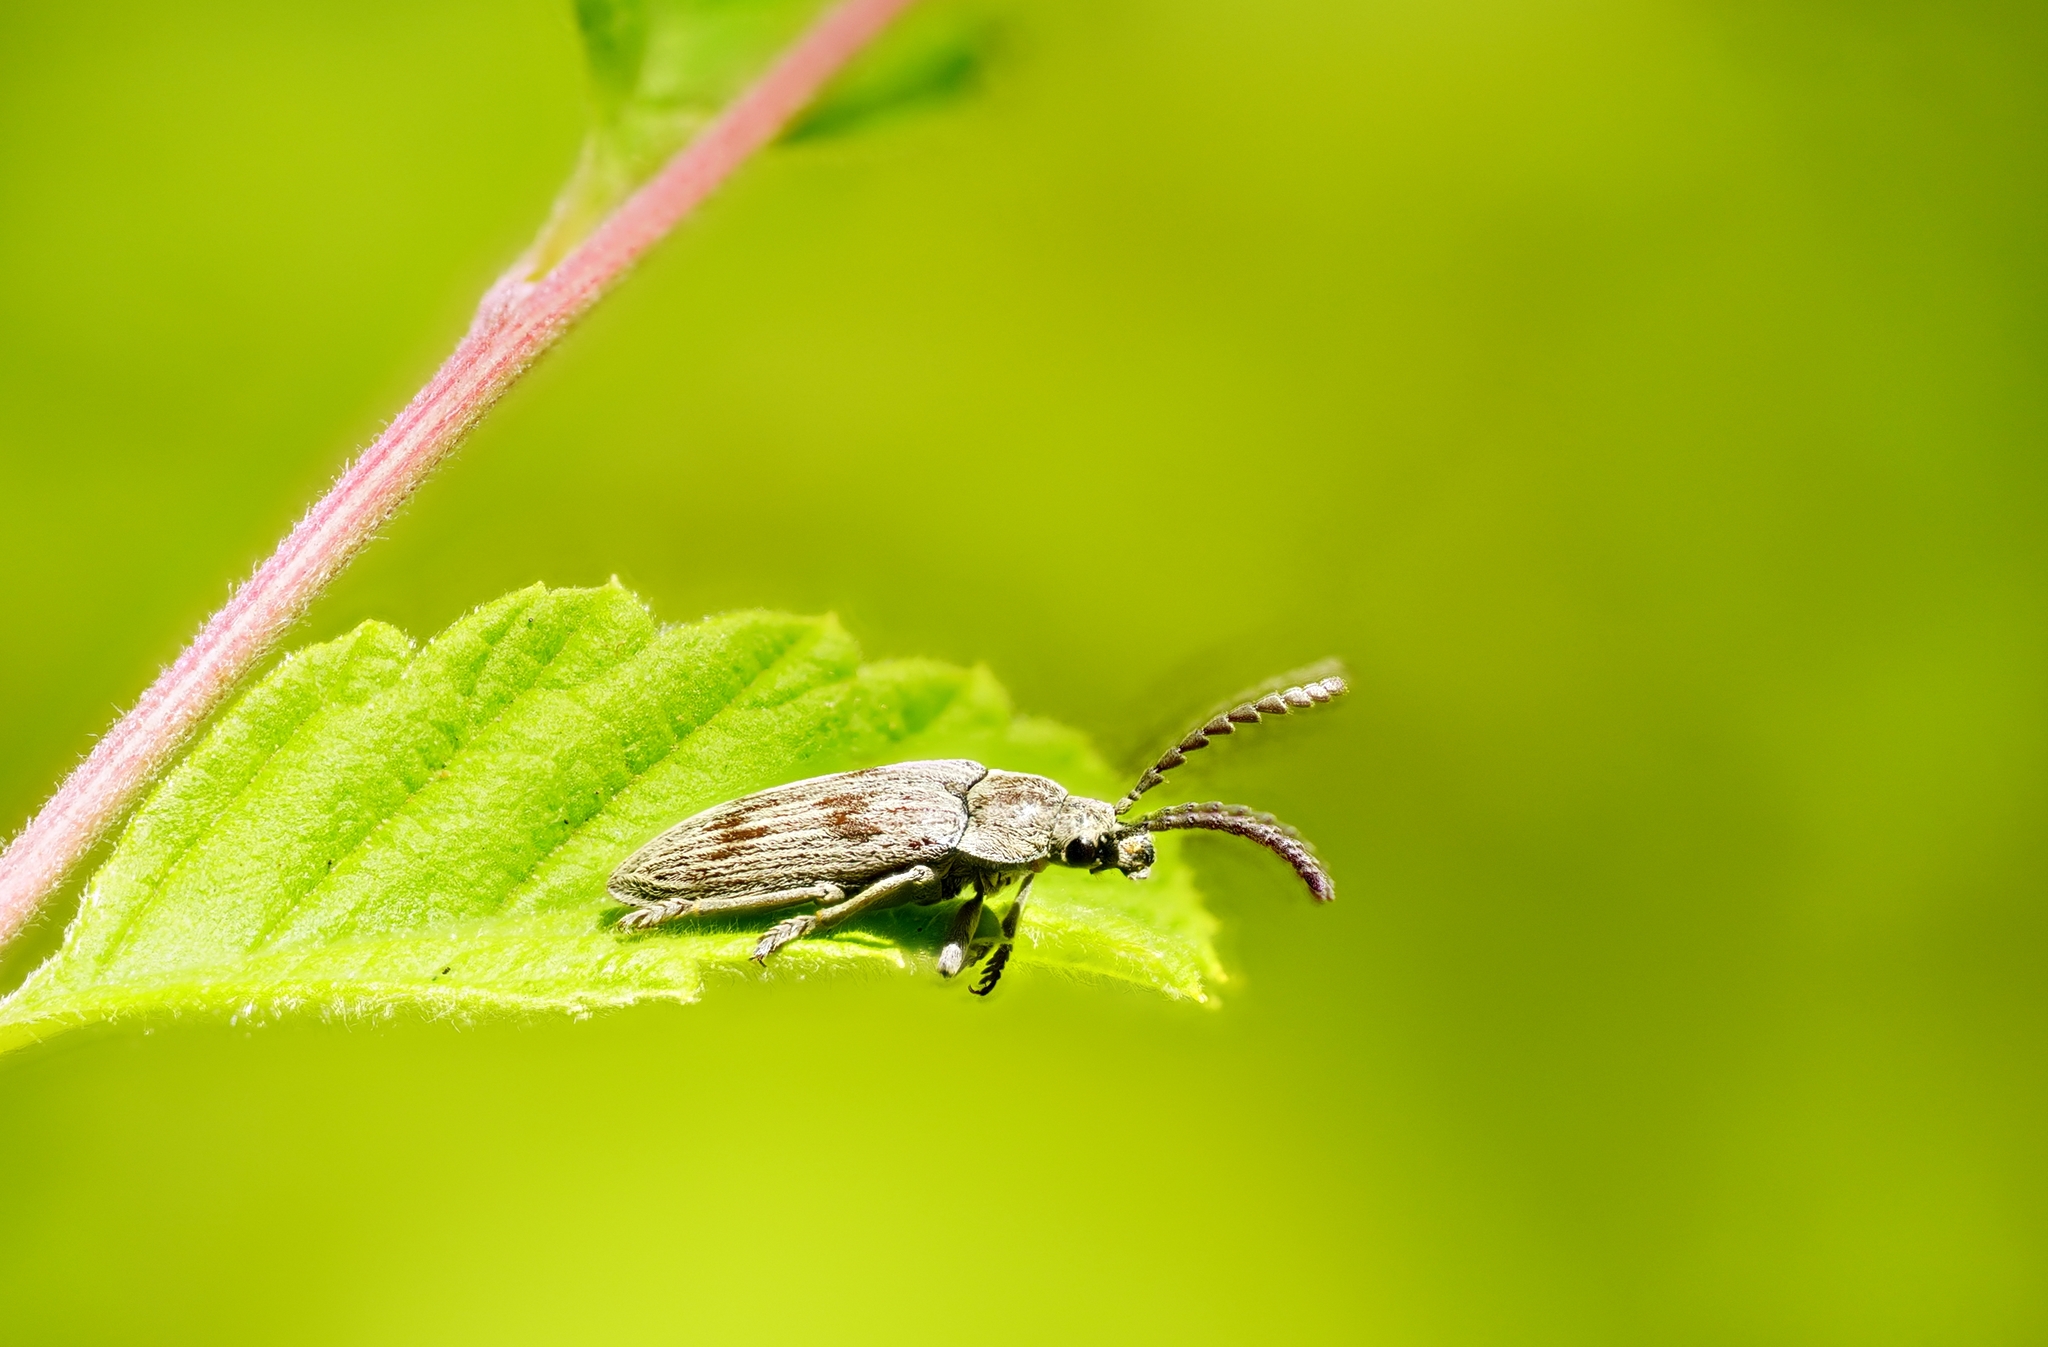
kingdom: Animalia
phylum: Arthropoda
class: Insecta
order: Coleoptera
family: Dascillidae
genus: Dascillus
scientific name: Dascillus davidsoni
